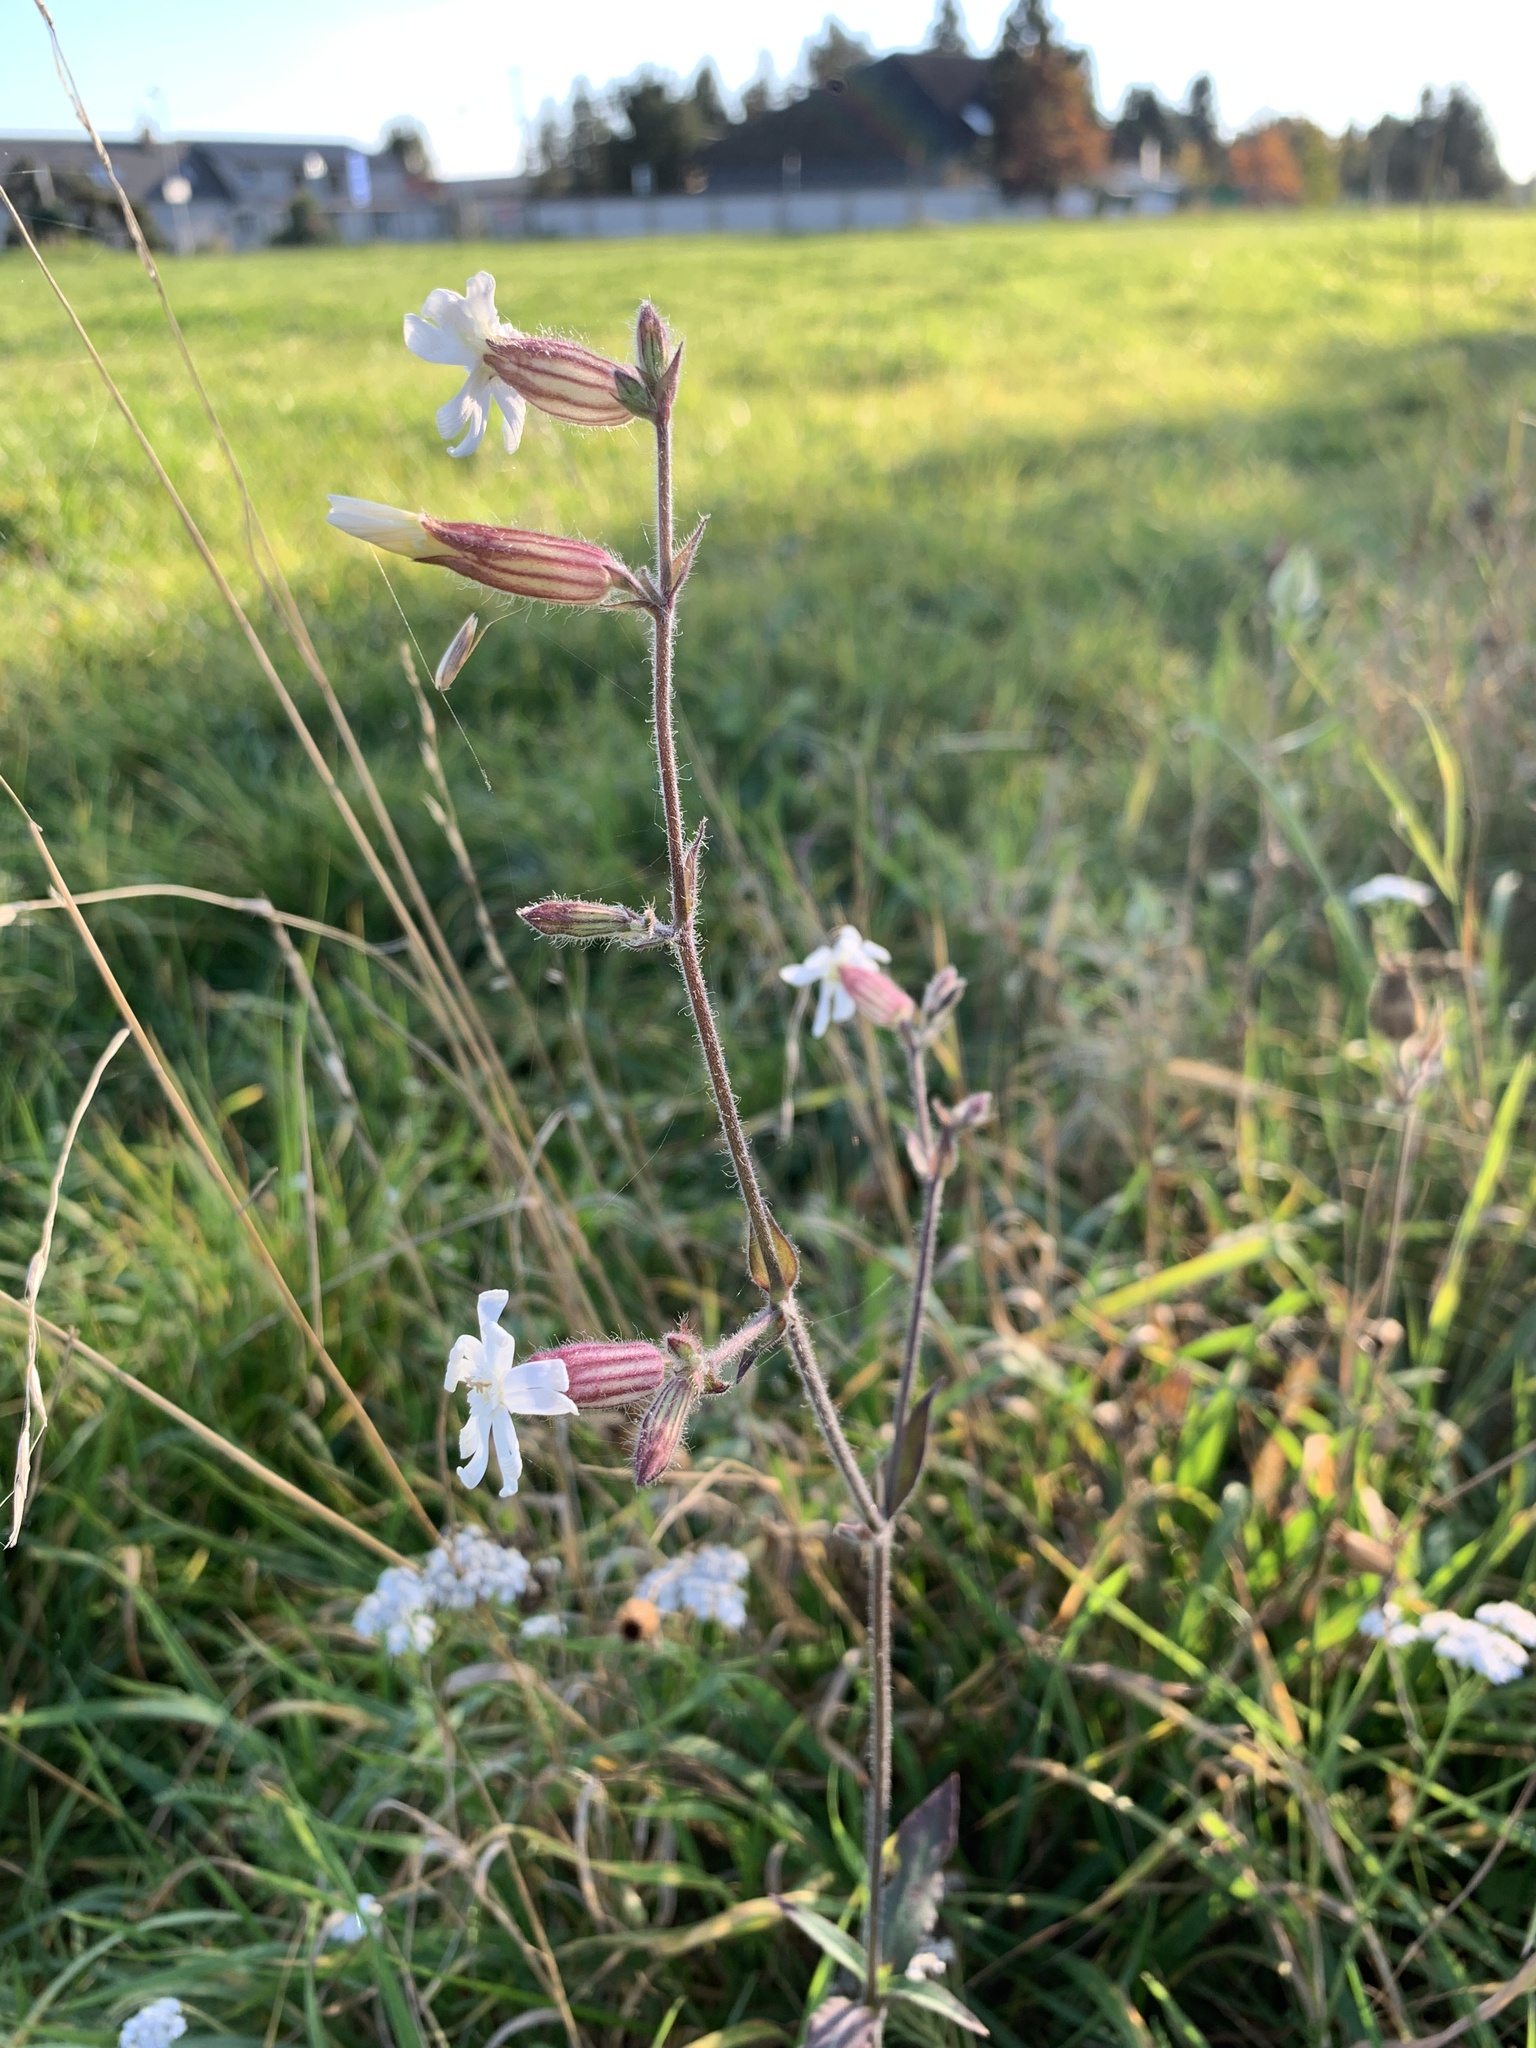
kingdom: Plantae
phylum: Tracheophyta
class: Magnoliopsida
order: Caryophyllales
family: Caryophyllaceae
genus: Silene
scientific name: Silene latifolia
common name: White campion
